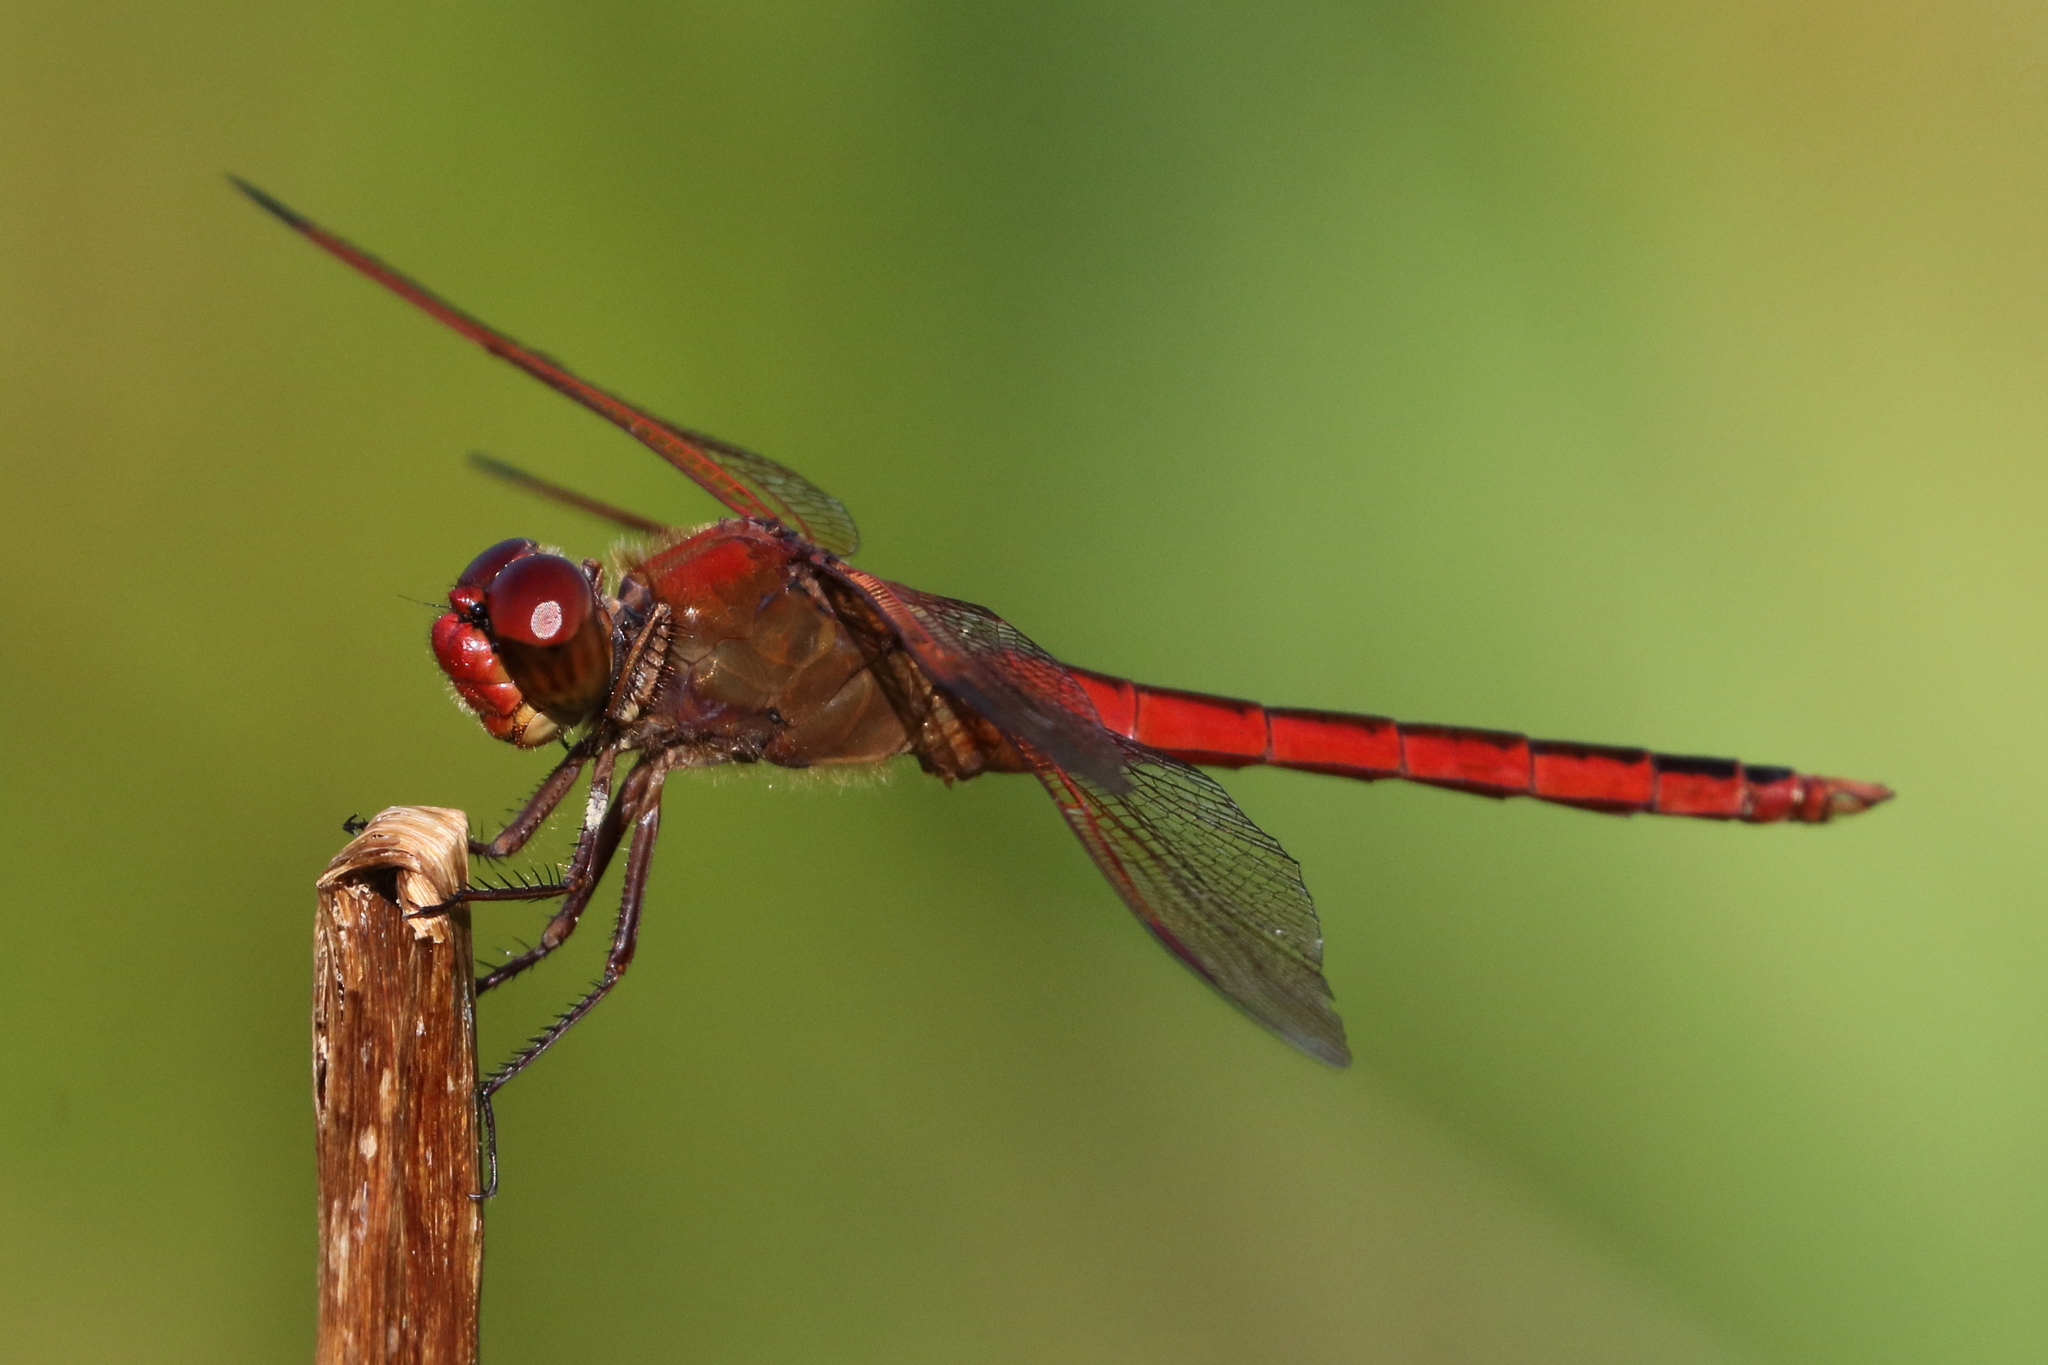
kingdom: Animalia
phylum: Arthropoda
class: Insecta
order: Odonata
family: Libellulidae
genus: Libellula
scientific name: Libellula needhami
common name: Needham's skimmer
